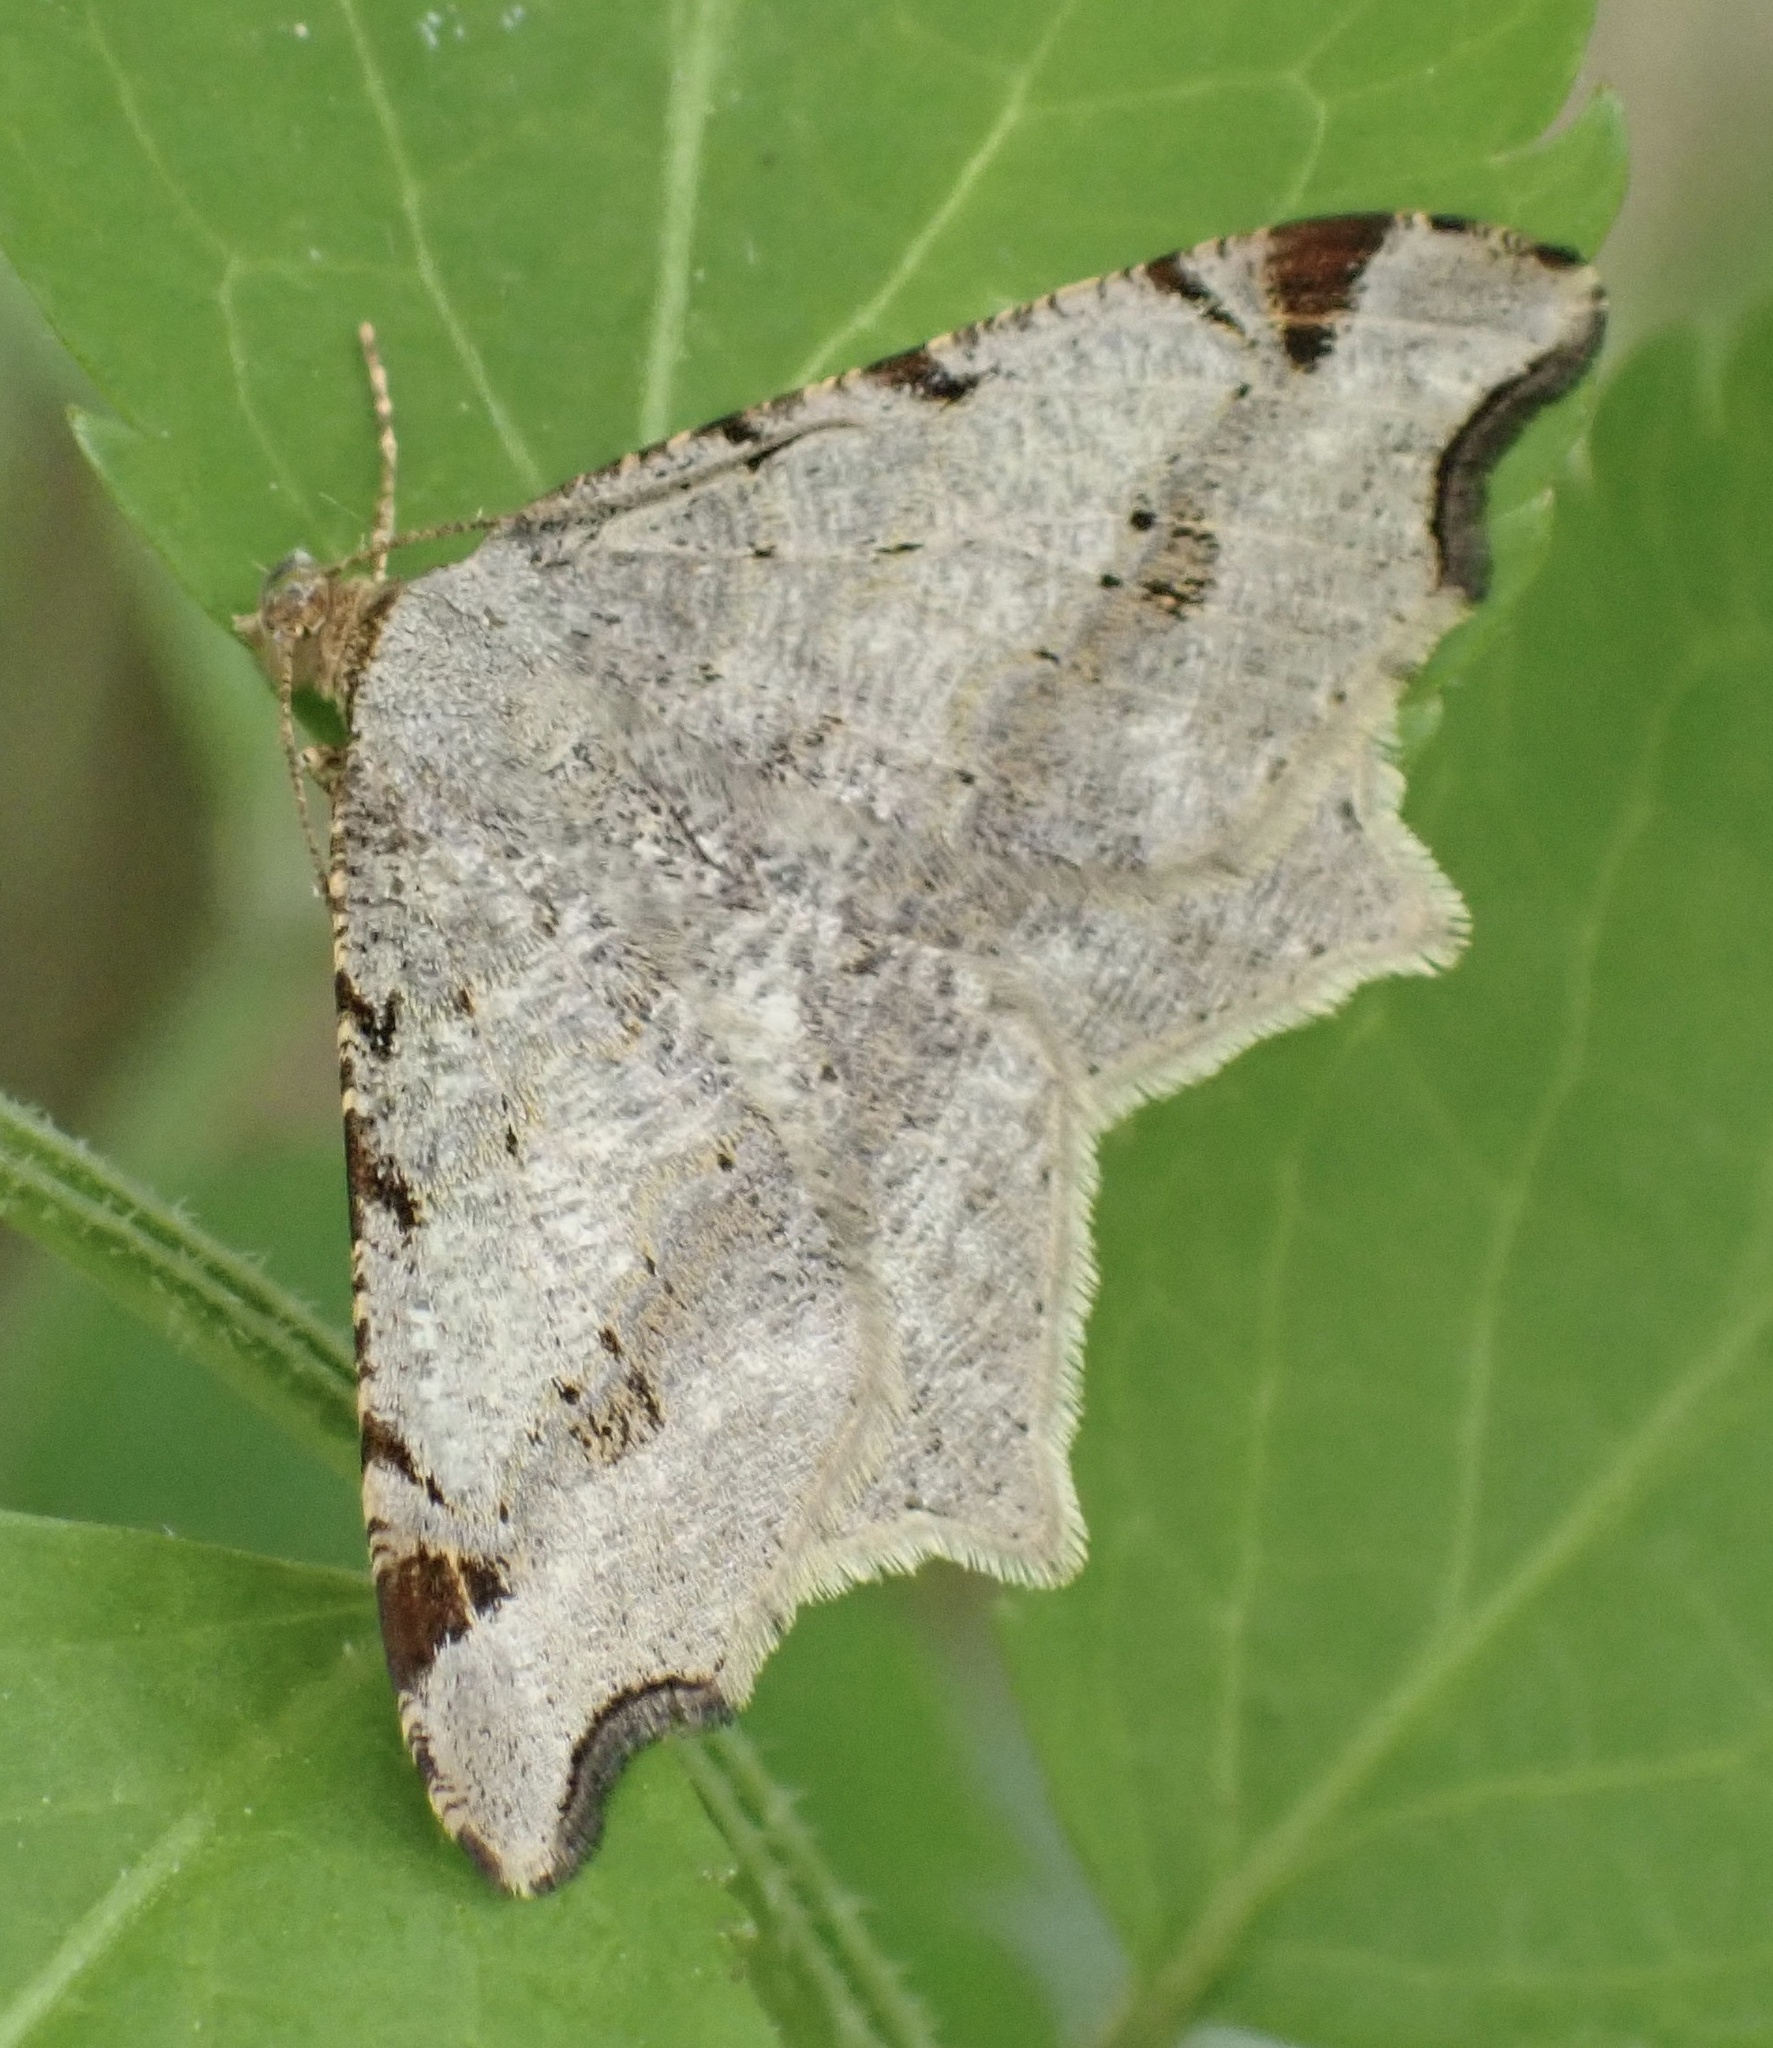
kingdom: Animalia
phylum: Arthropoda
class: Insecta
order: Lepidoptera
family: Geometridae
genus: Macaria
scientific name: Macaria alternata
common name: Sharp-angled peacock
